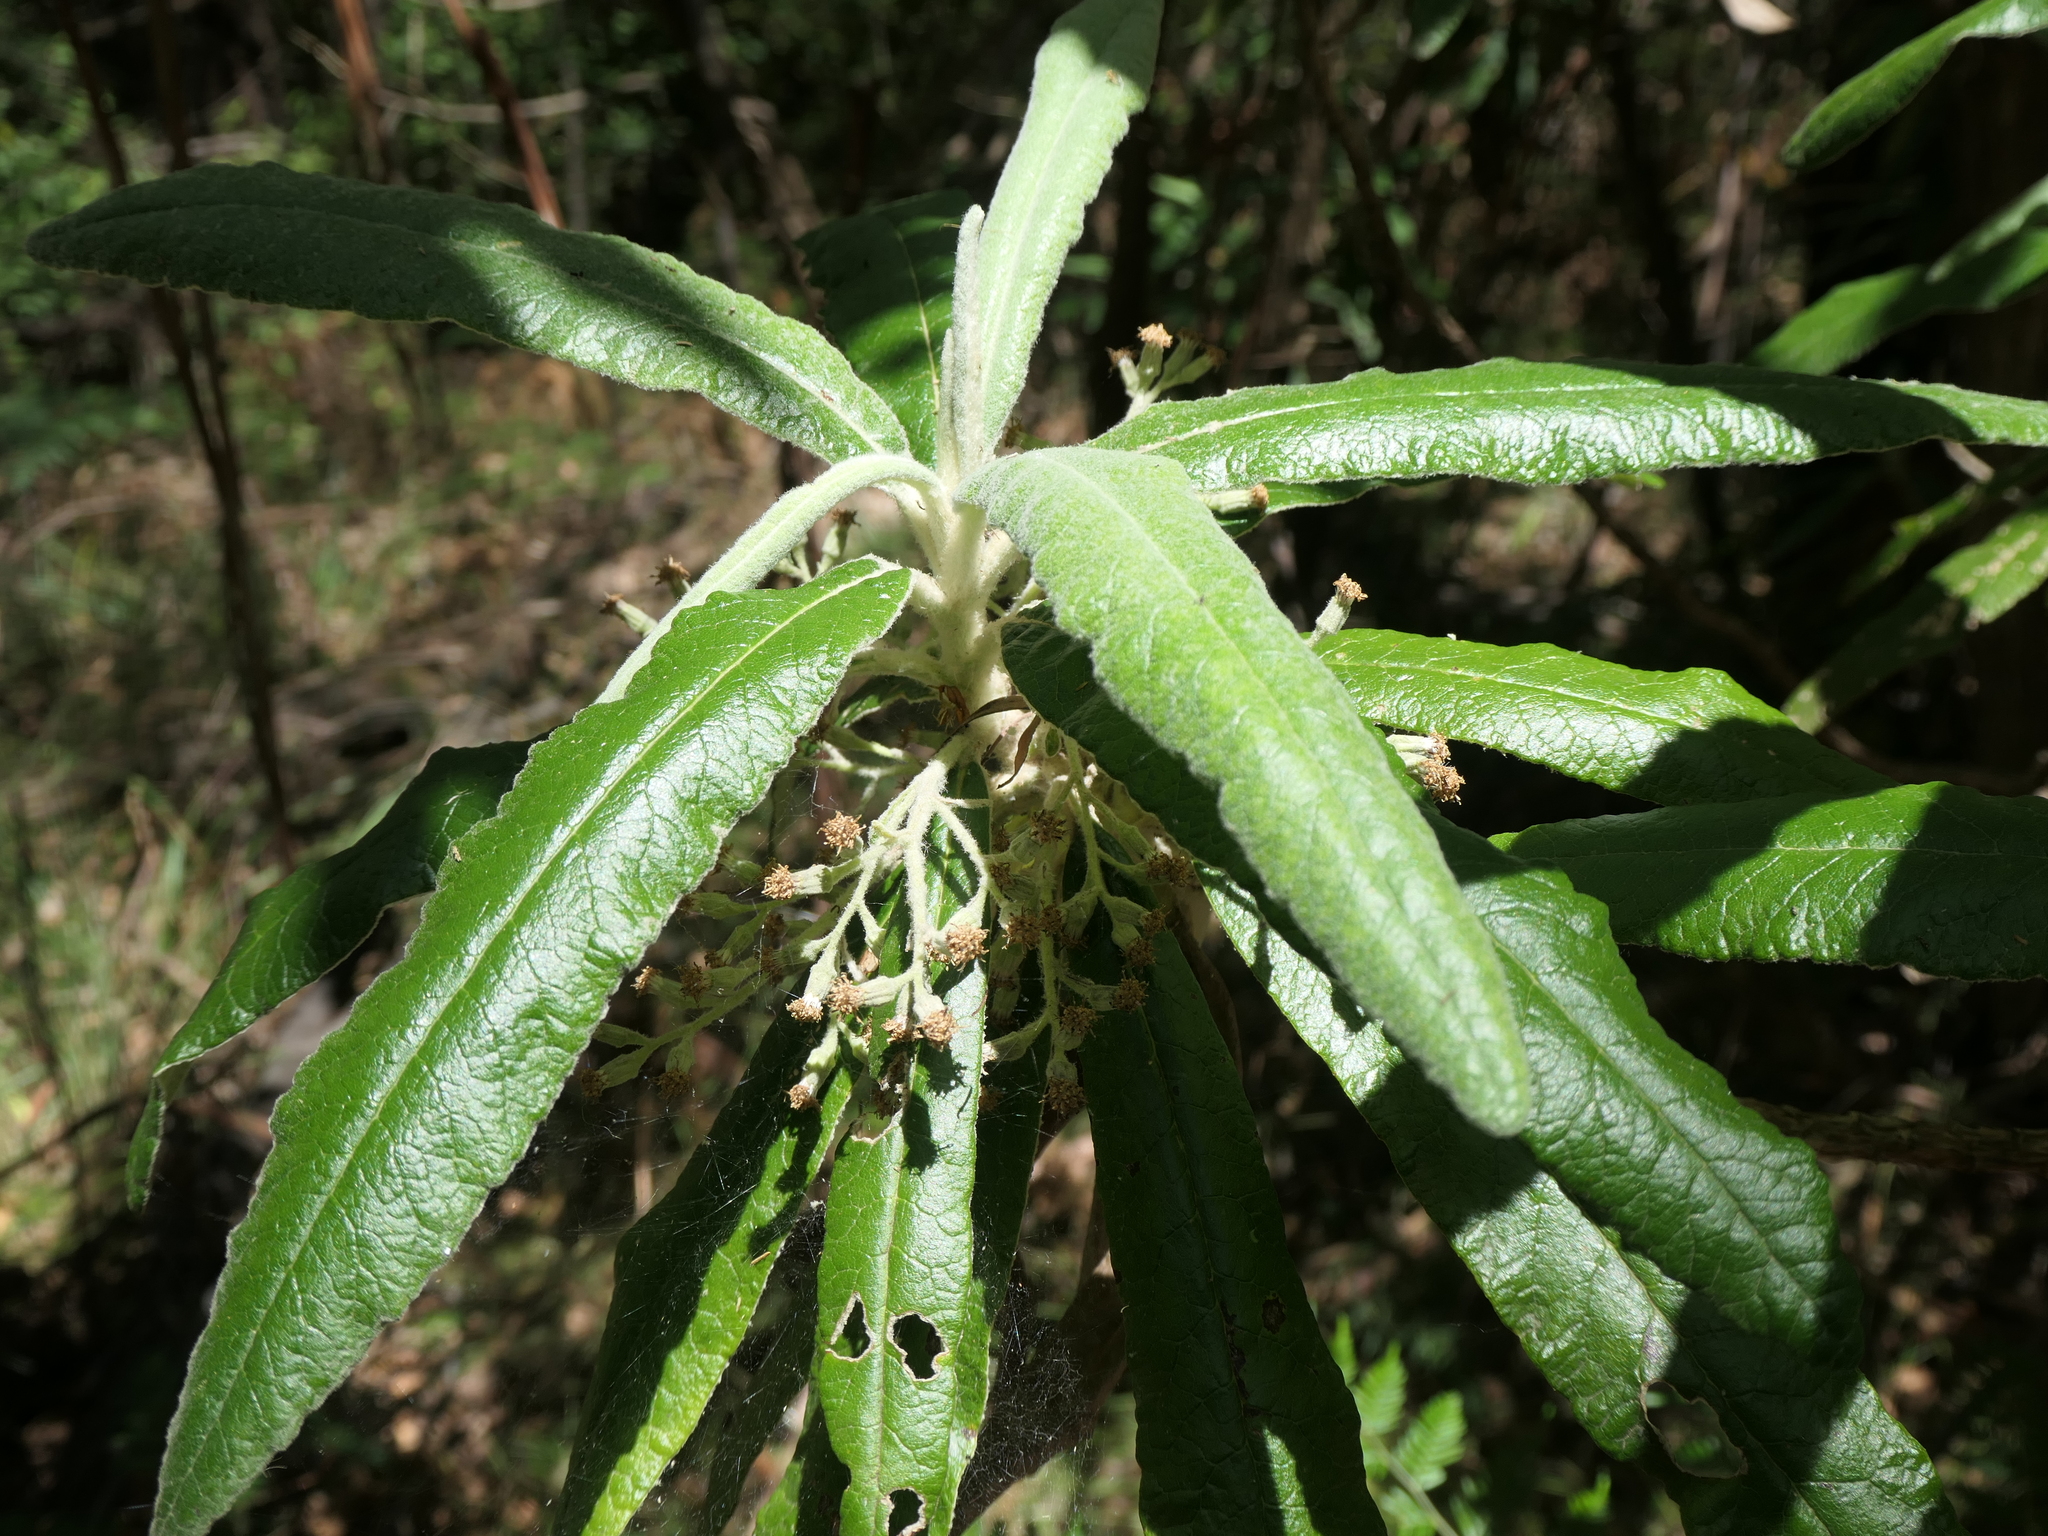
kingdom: Plantae
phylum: Tracheophyta
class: Magnoliopsida
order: Asterales
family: Asteraceae
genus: Bedfordia
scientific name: Bedfordia arborescens
